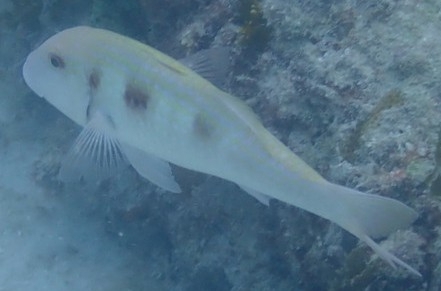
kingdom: Animalia
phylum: Chordata
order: Perciformes
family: Mullidae
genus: Pseudupeneus
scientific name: Pseudupeneus maculatus
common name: Spotted goatfish
